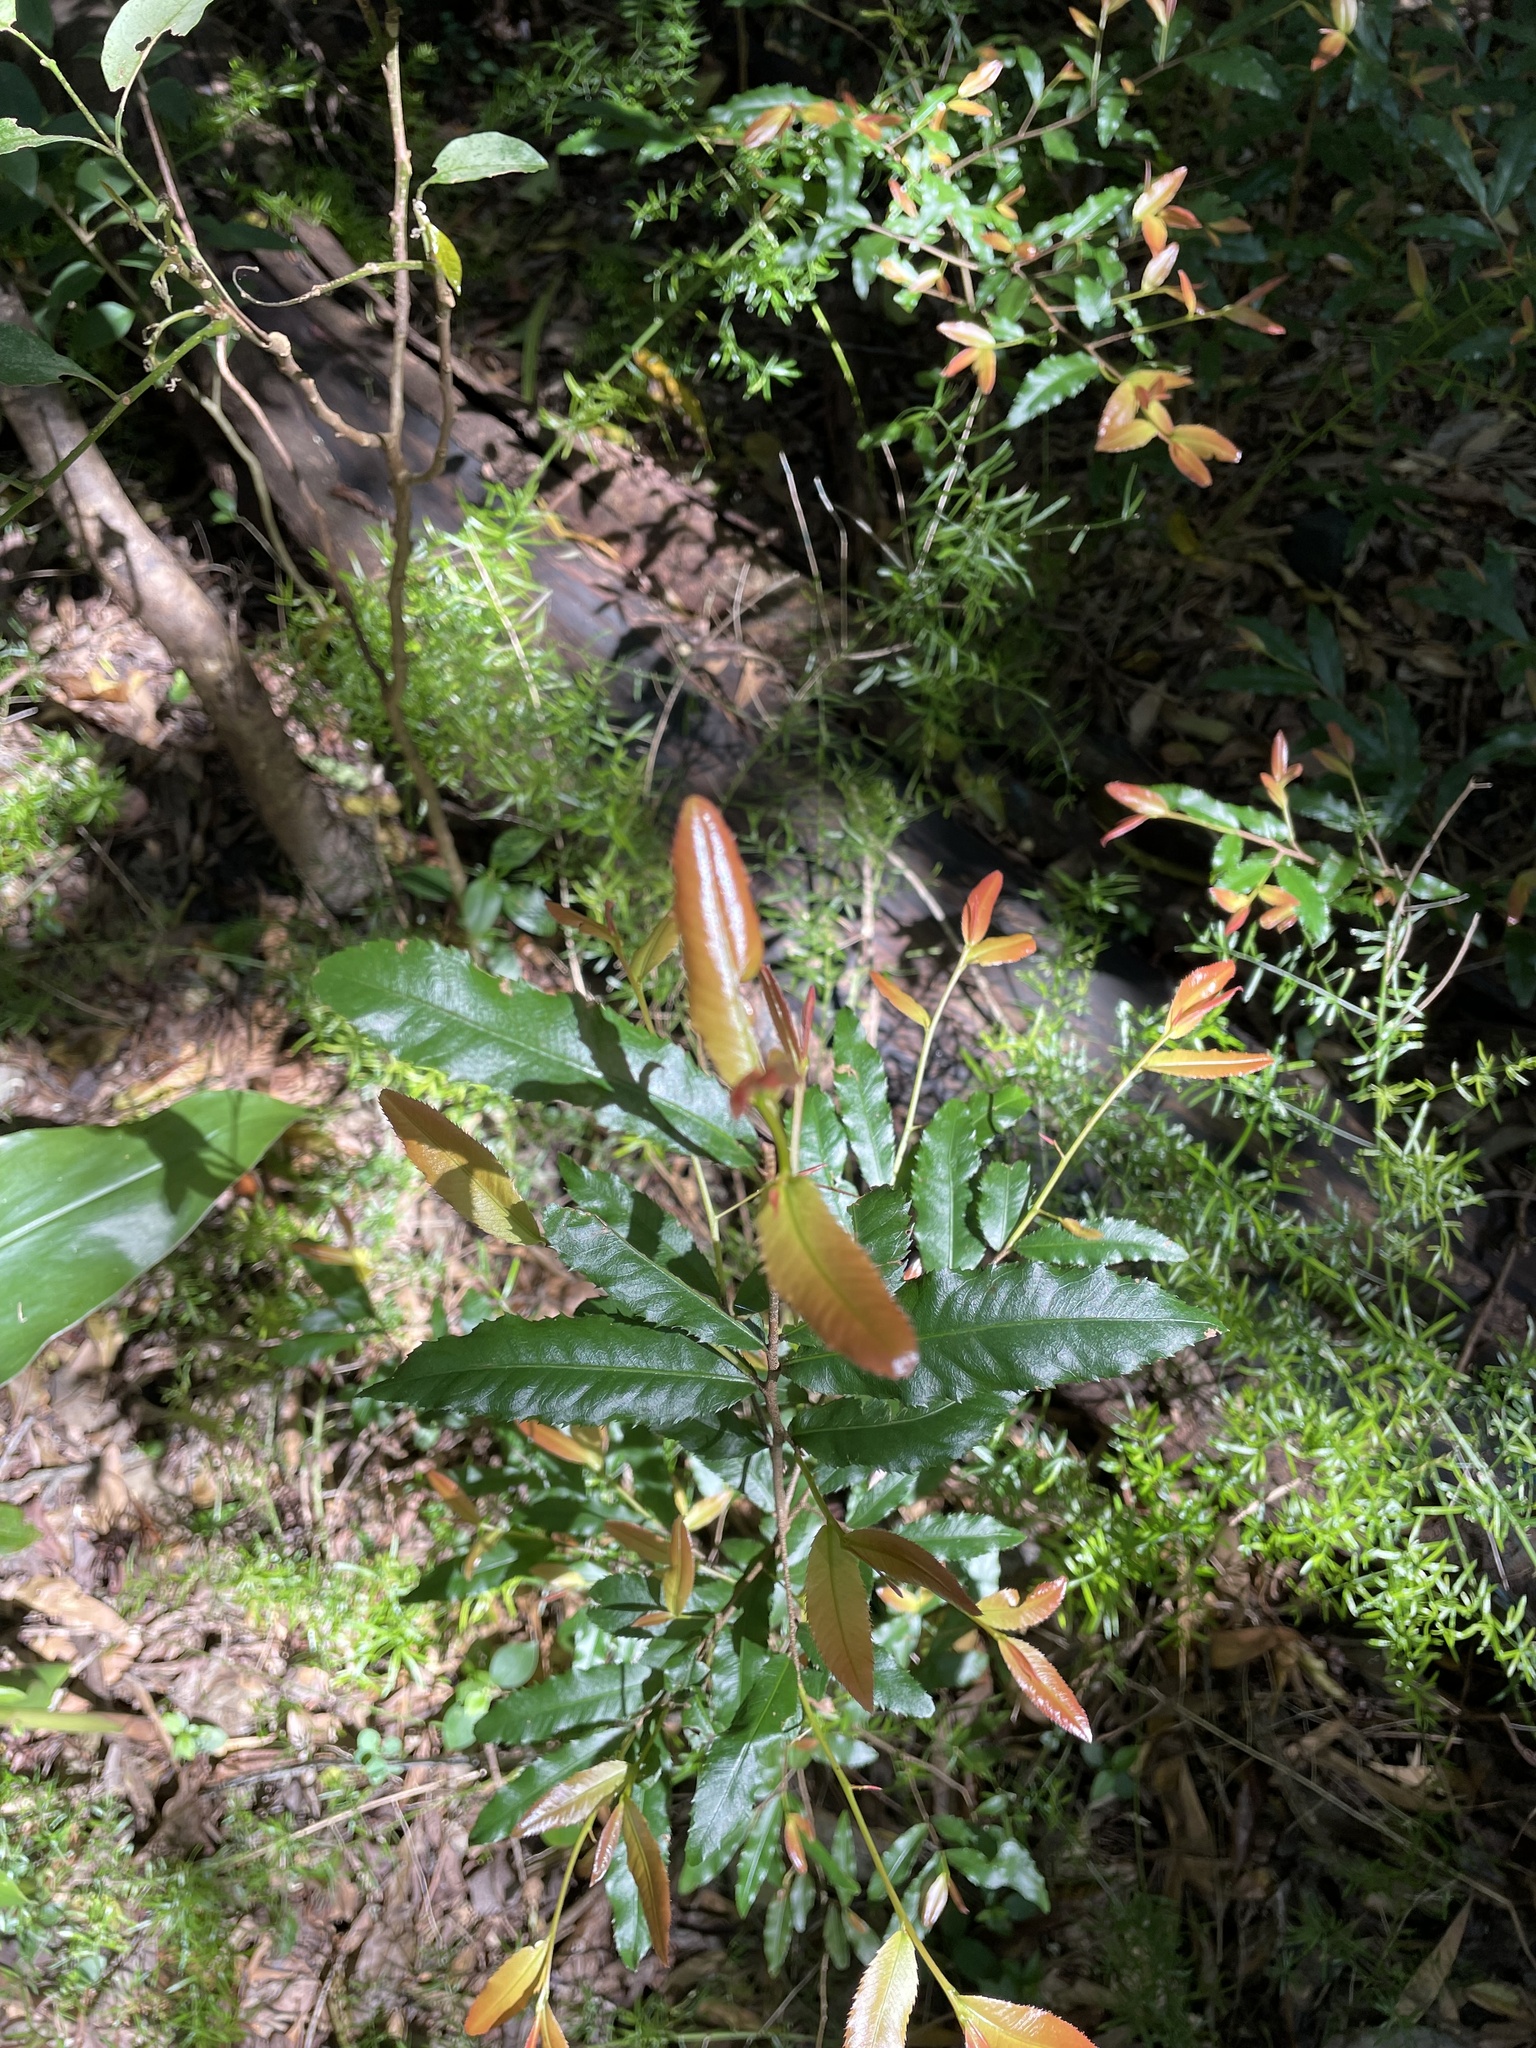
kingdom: Plantae
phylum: Tracheophyta
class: Magnoliopsida
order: Malpighiales
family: Ochnaceae
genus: Ochna
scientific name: Ochna serrulata
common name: Mickey mouse plant
